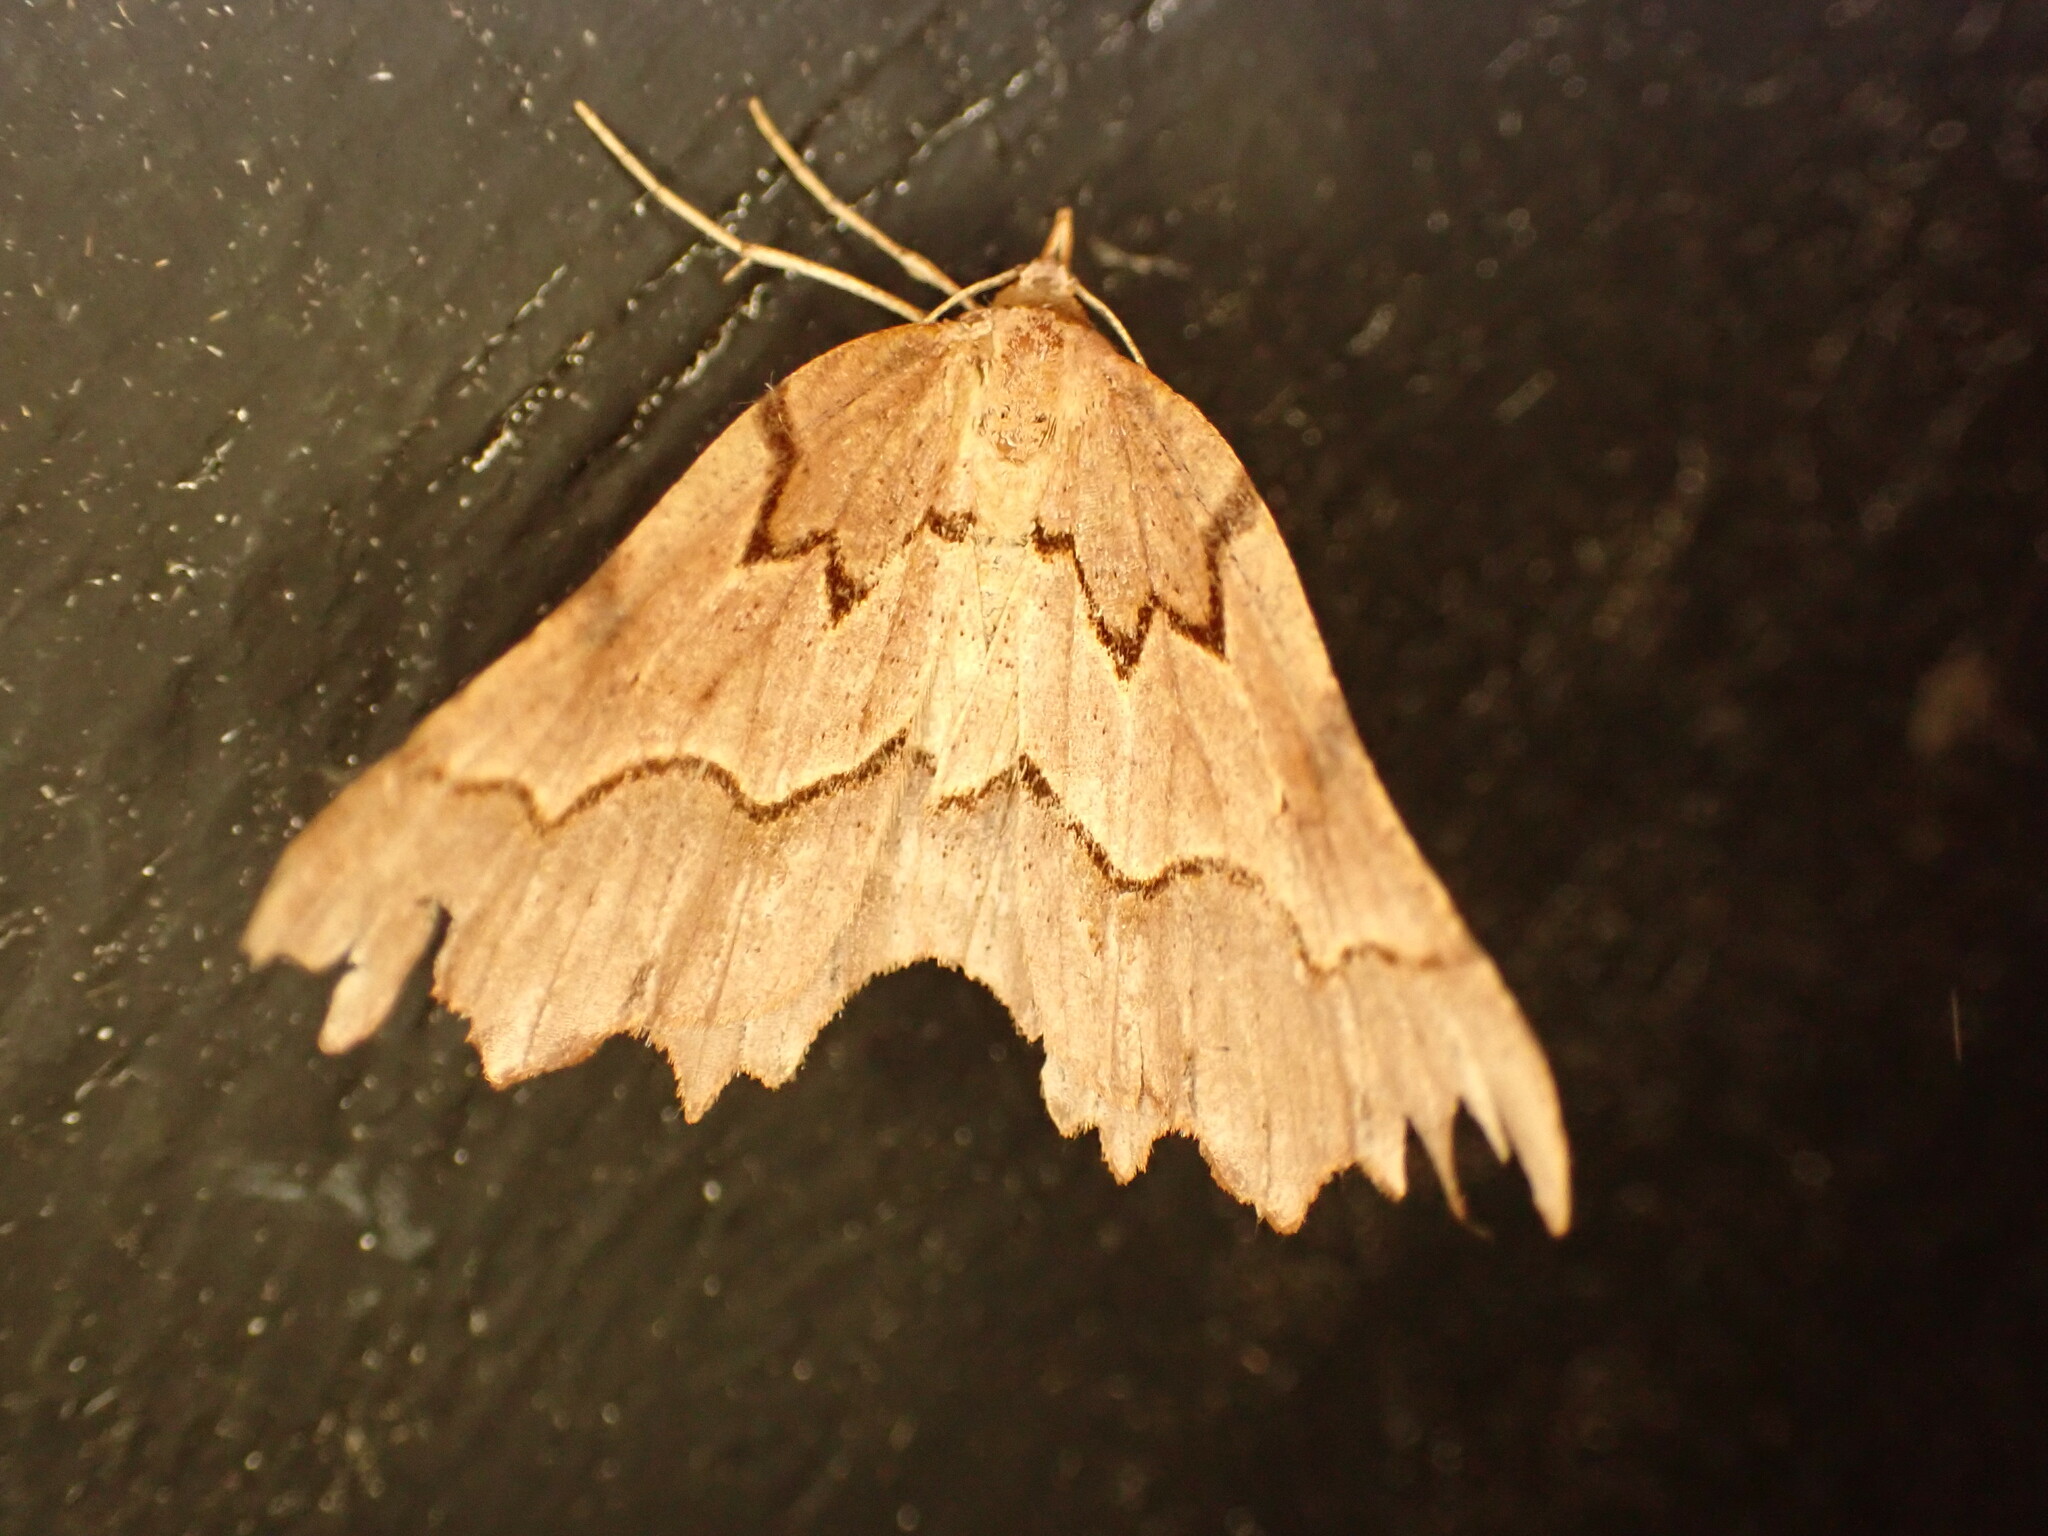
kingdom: Animalia
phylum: Arthropoda
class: Insecta
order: Lepidoptera
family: Geometridae
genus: Ischalis
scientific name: Ischalis fortinata
